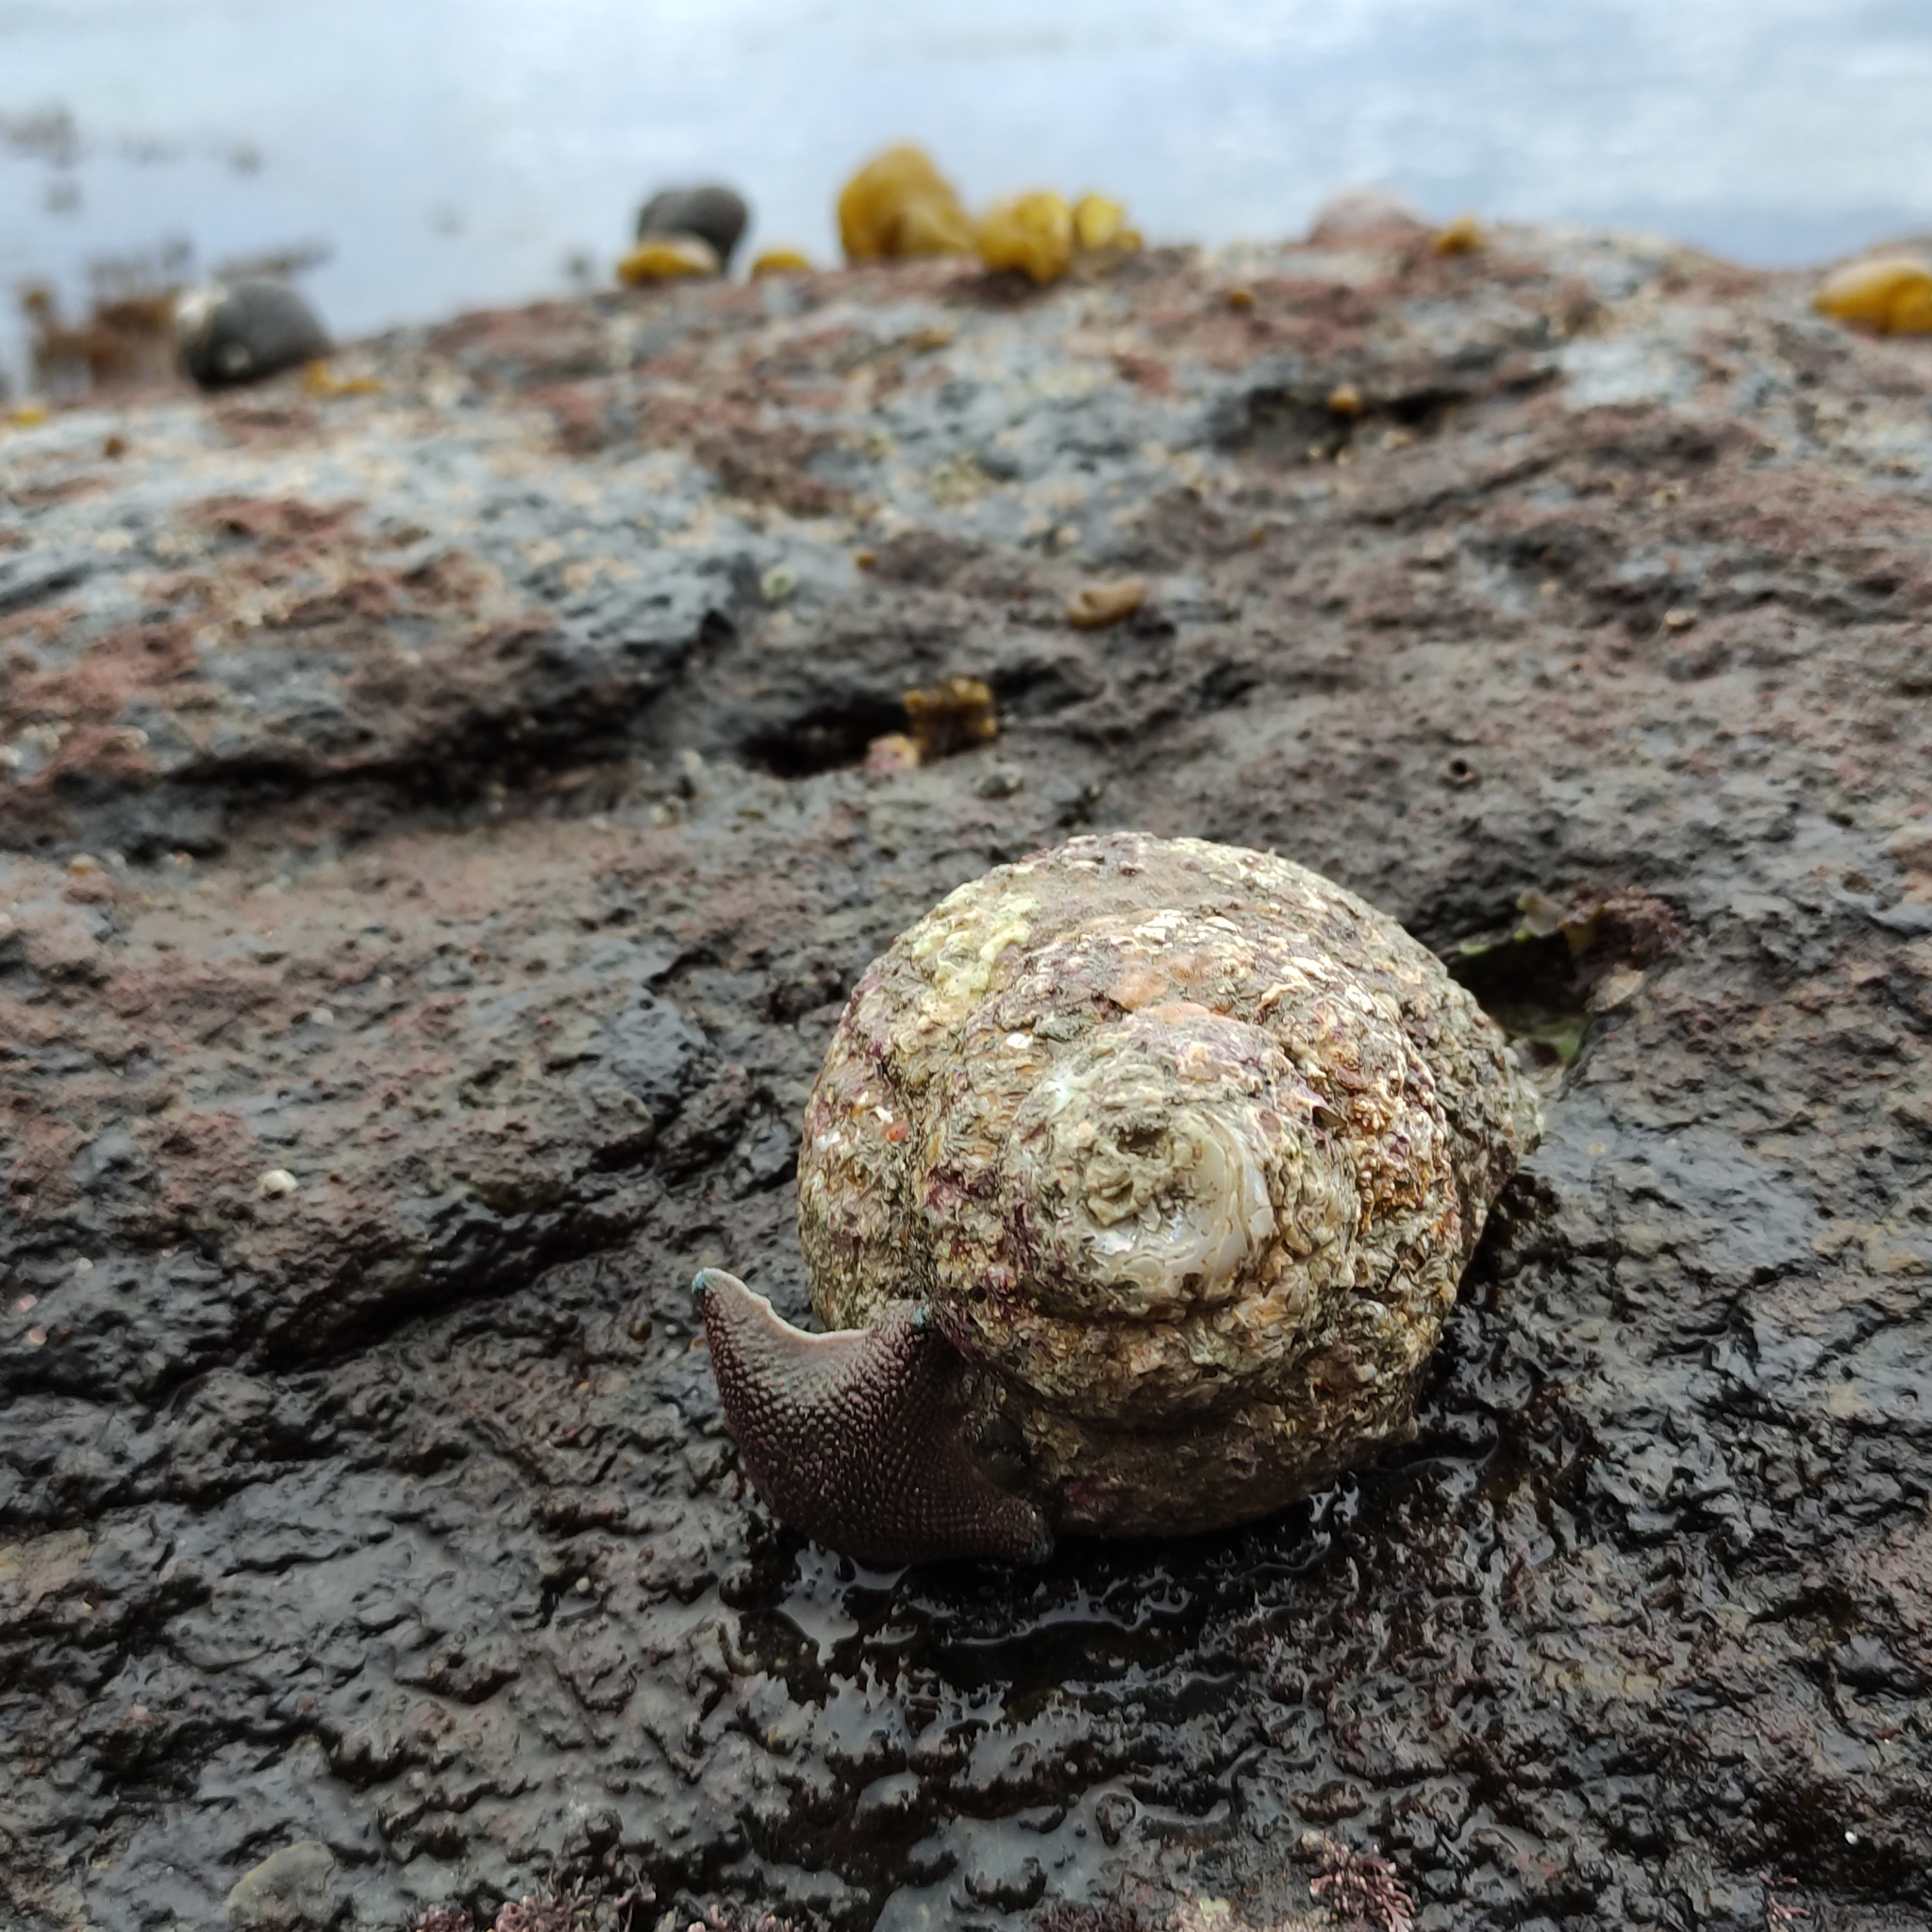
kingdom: Animalia
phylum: Mollusca
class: Gastropoda
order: Trochida
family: Turbinidae
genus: Cookia
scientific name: Cookia sulcata
